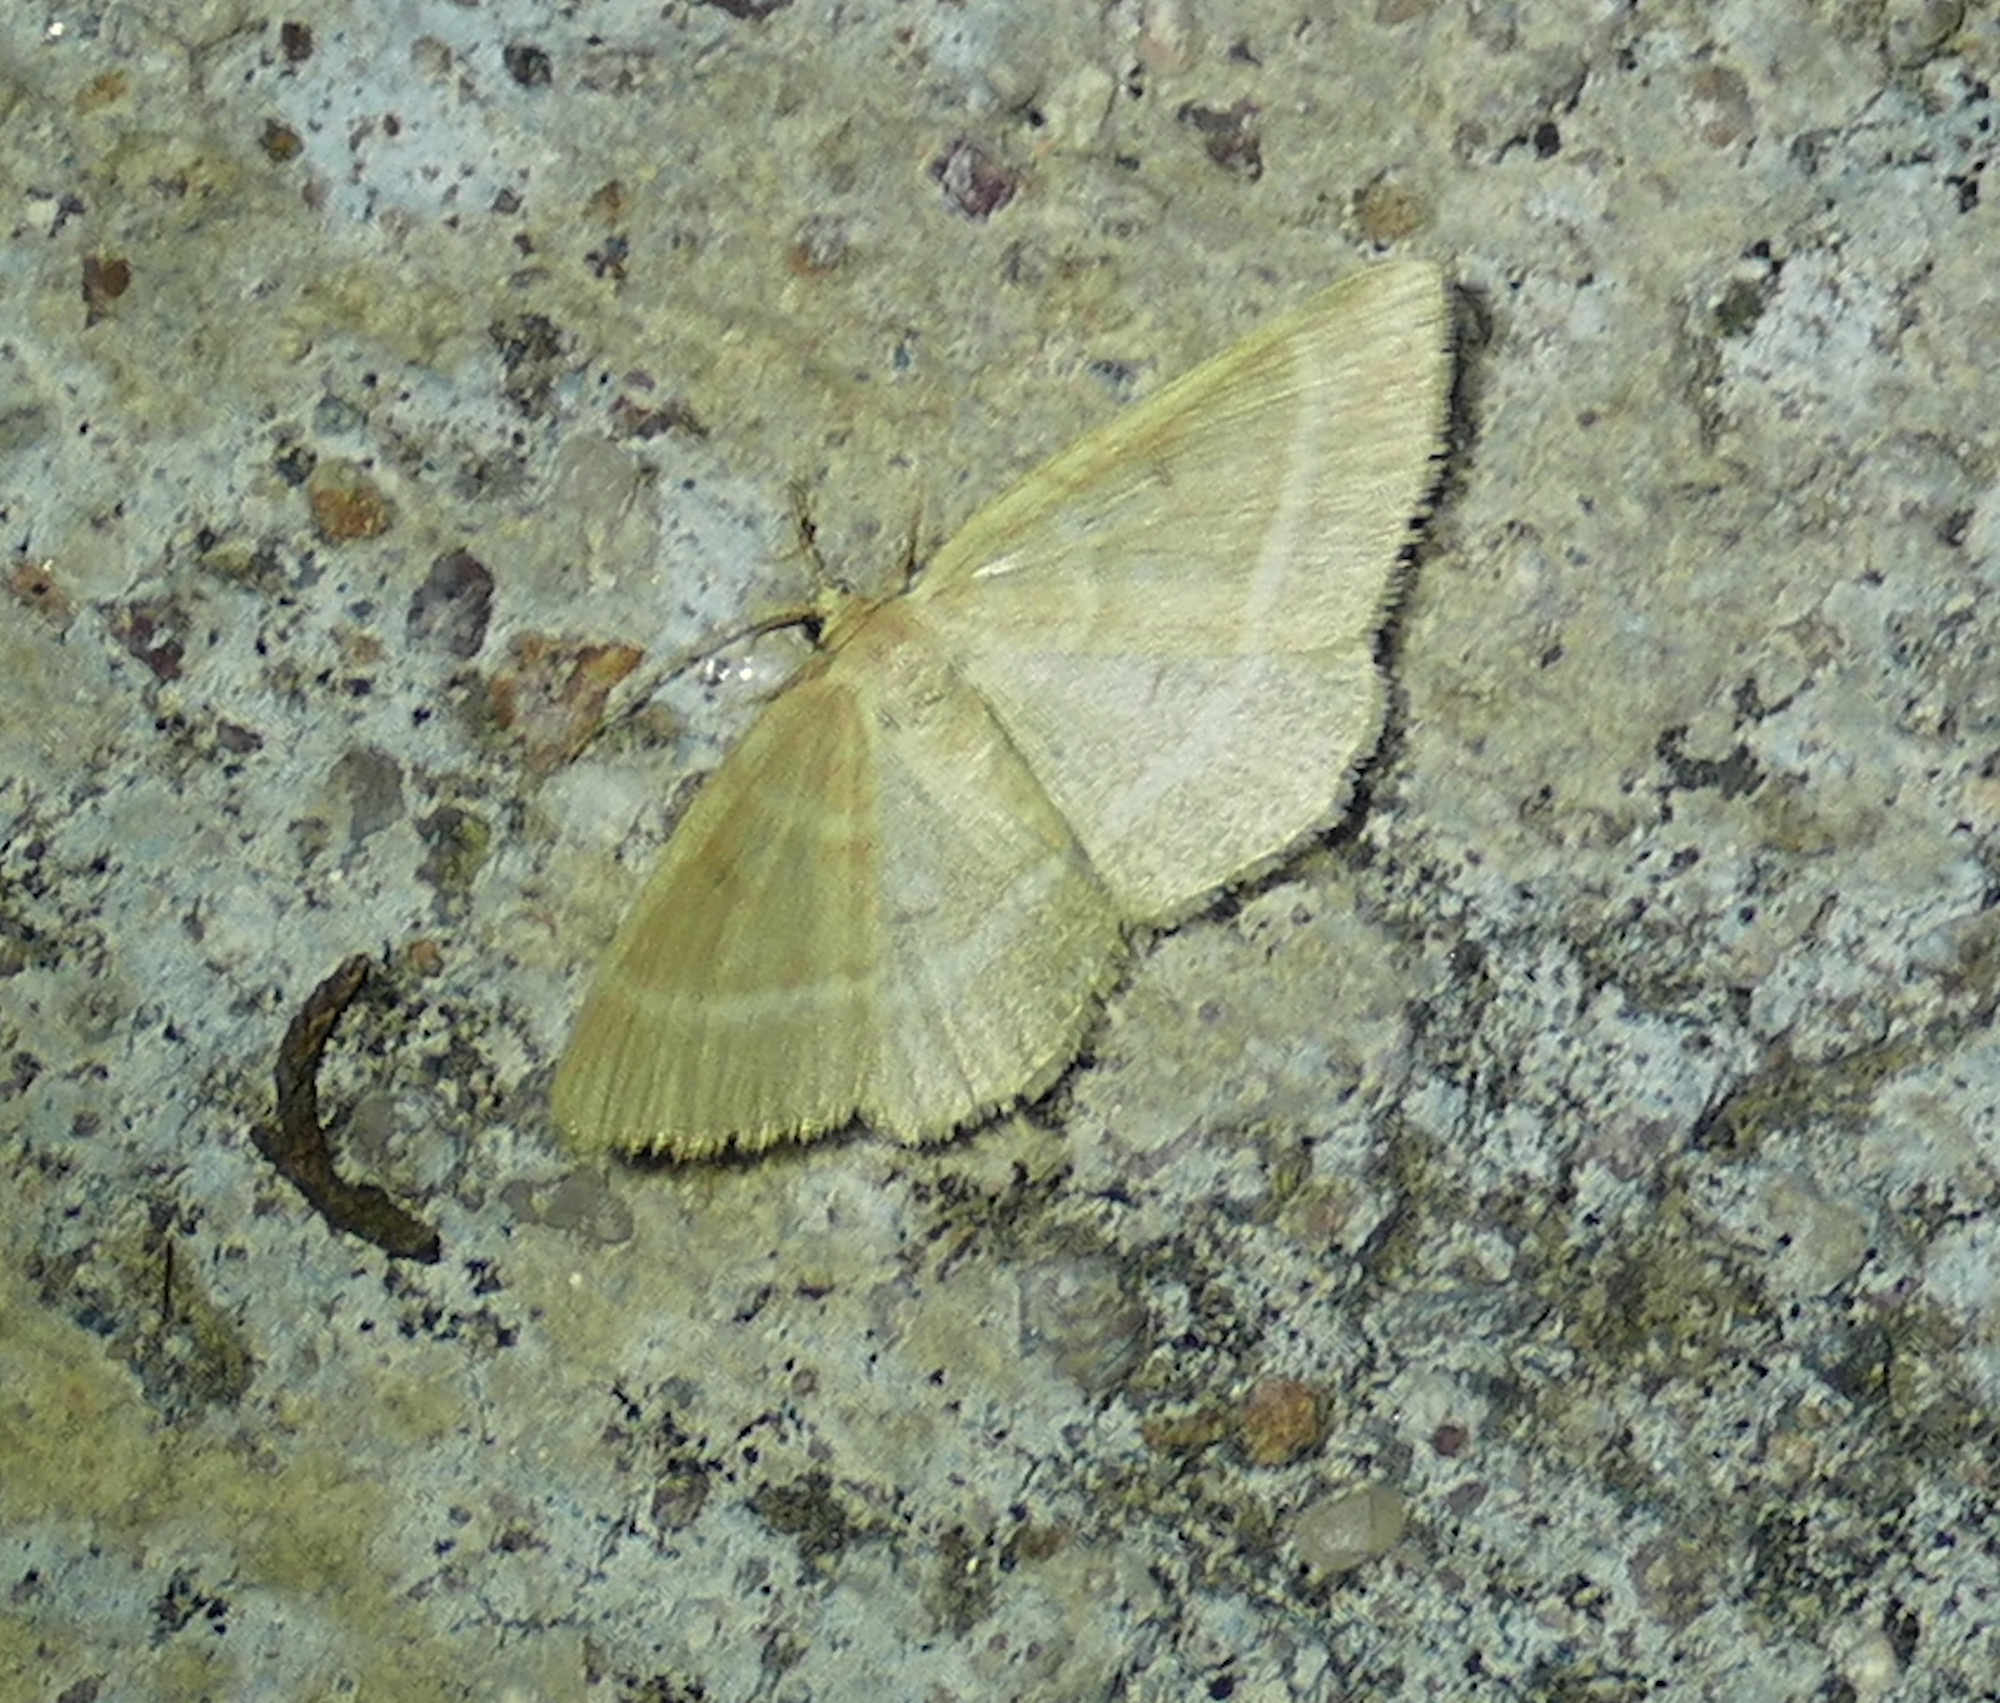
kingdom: Animalia
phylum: Arthropoda
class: Insecta
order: Lepidoptera
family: Geometridae
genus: Sperrya
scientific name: Sperrya cervula
